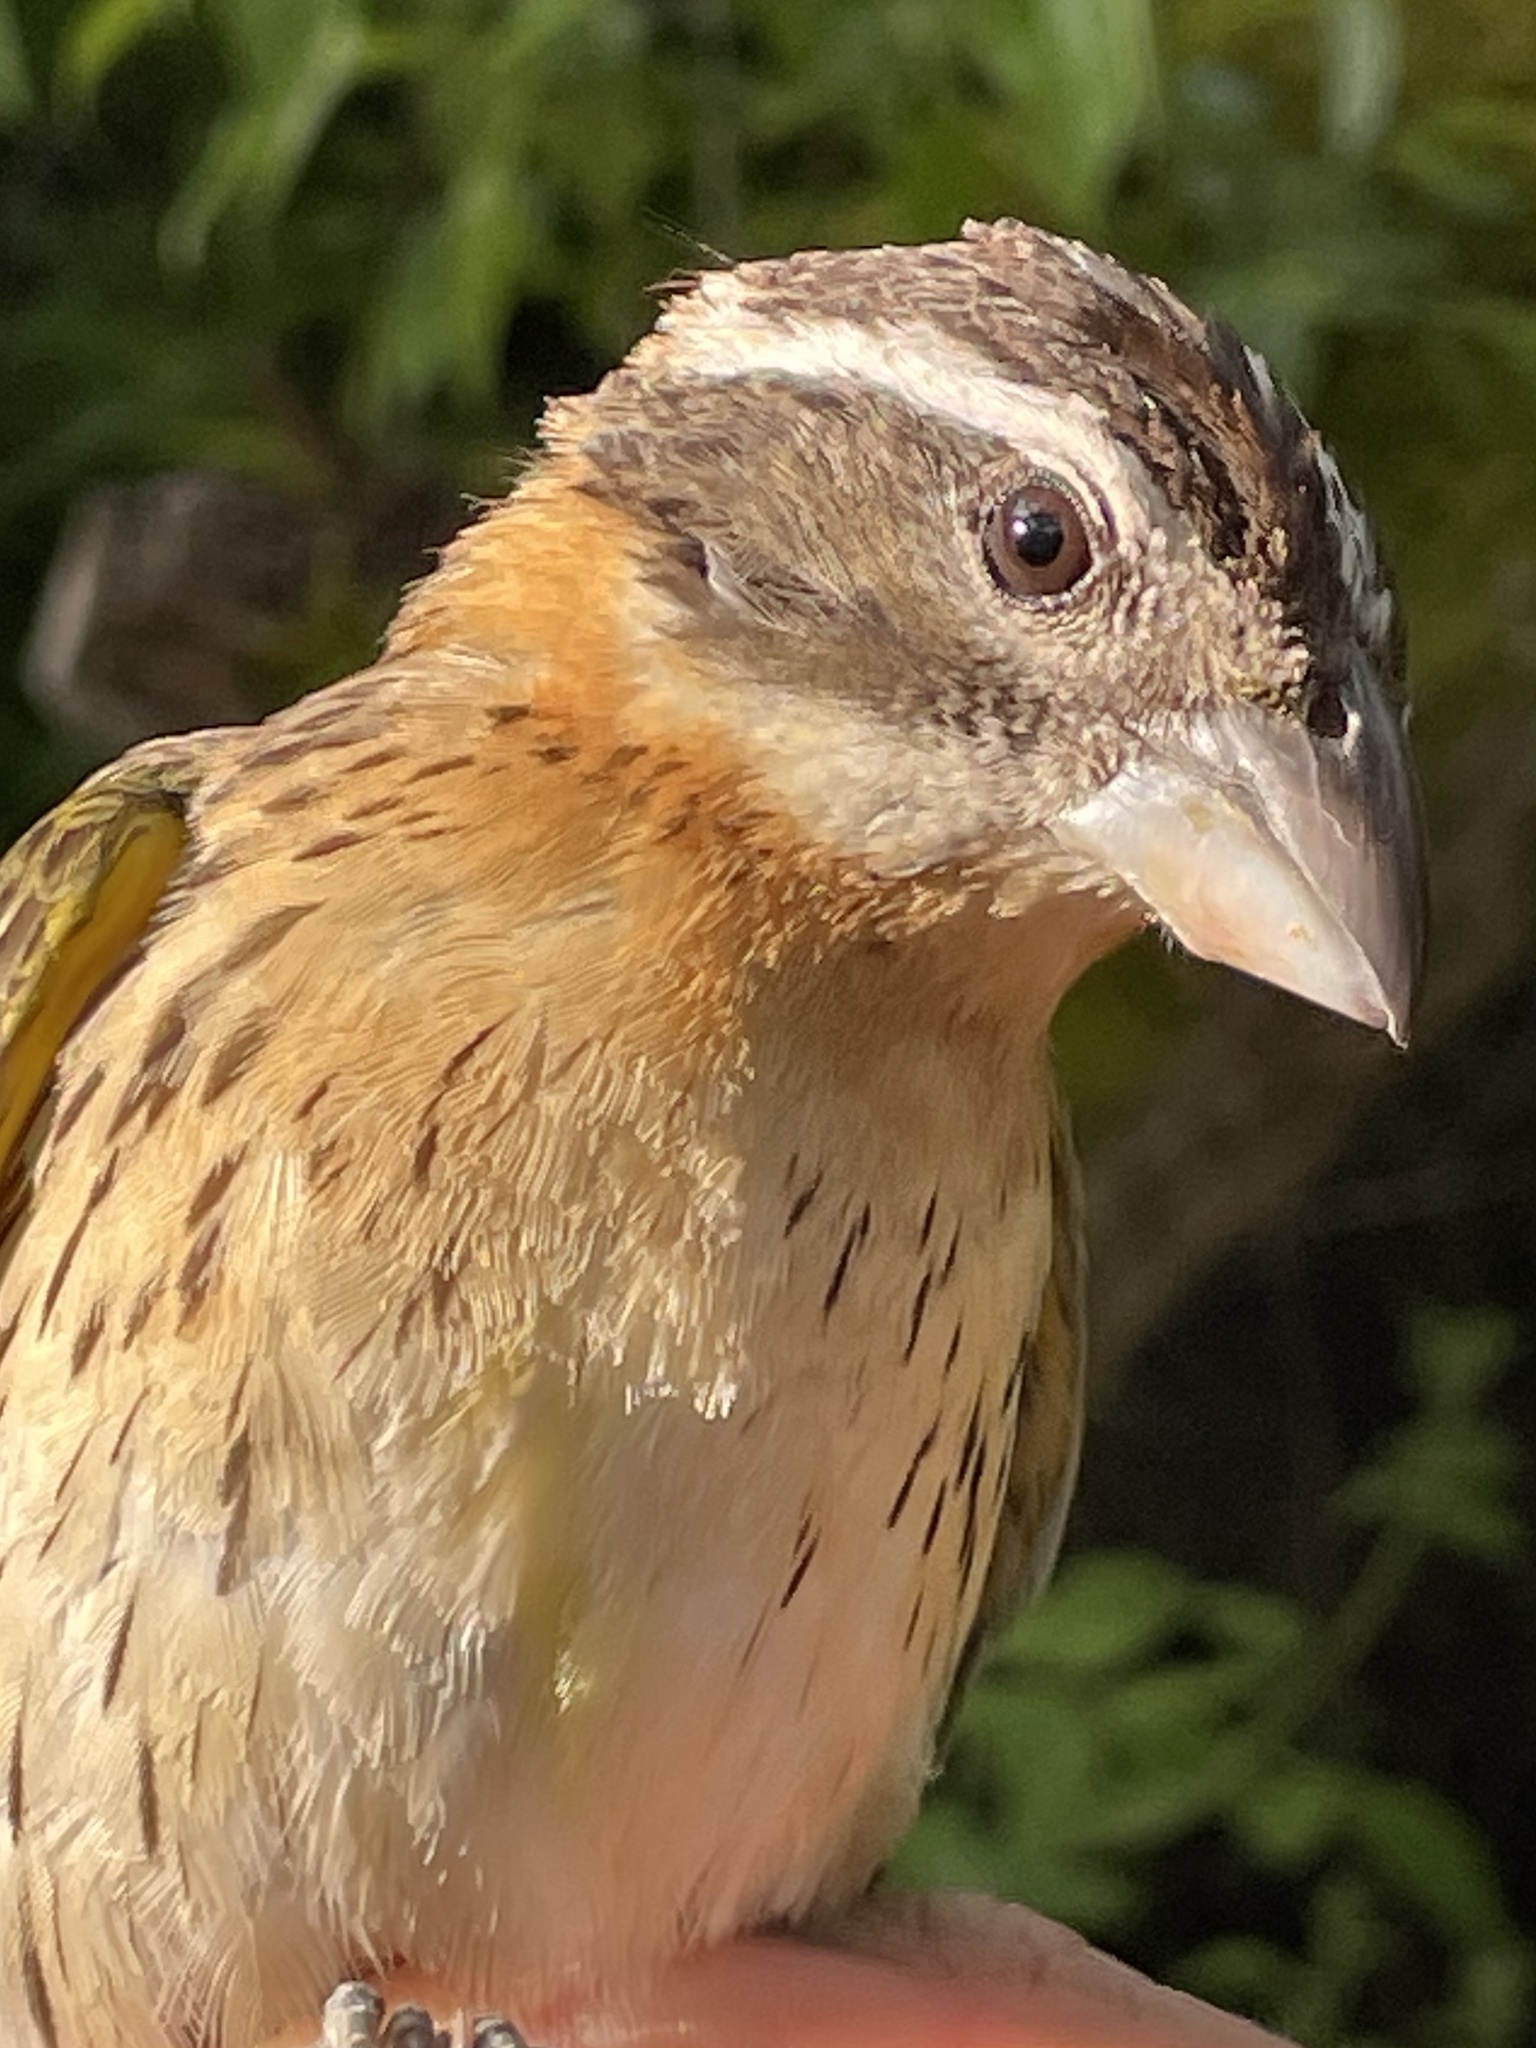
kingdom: Animalia
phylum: Chordata
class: Aves
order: Passeriformes
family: Cardinalidae
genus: Pheucticus
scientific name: Pheucticus melanocephalus
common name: Black-headed grosbeak
